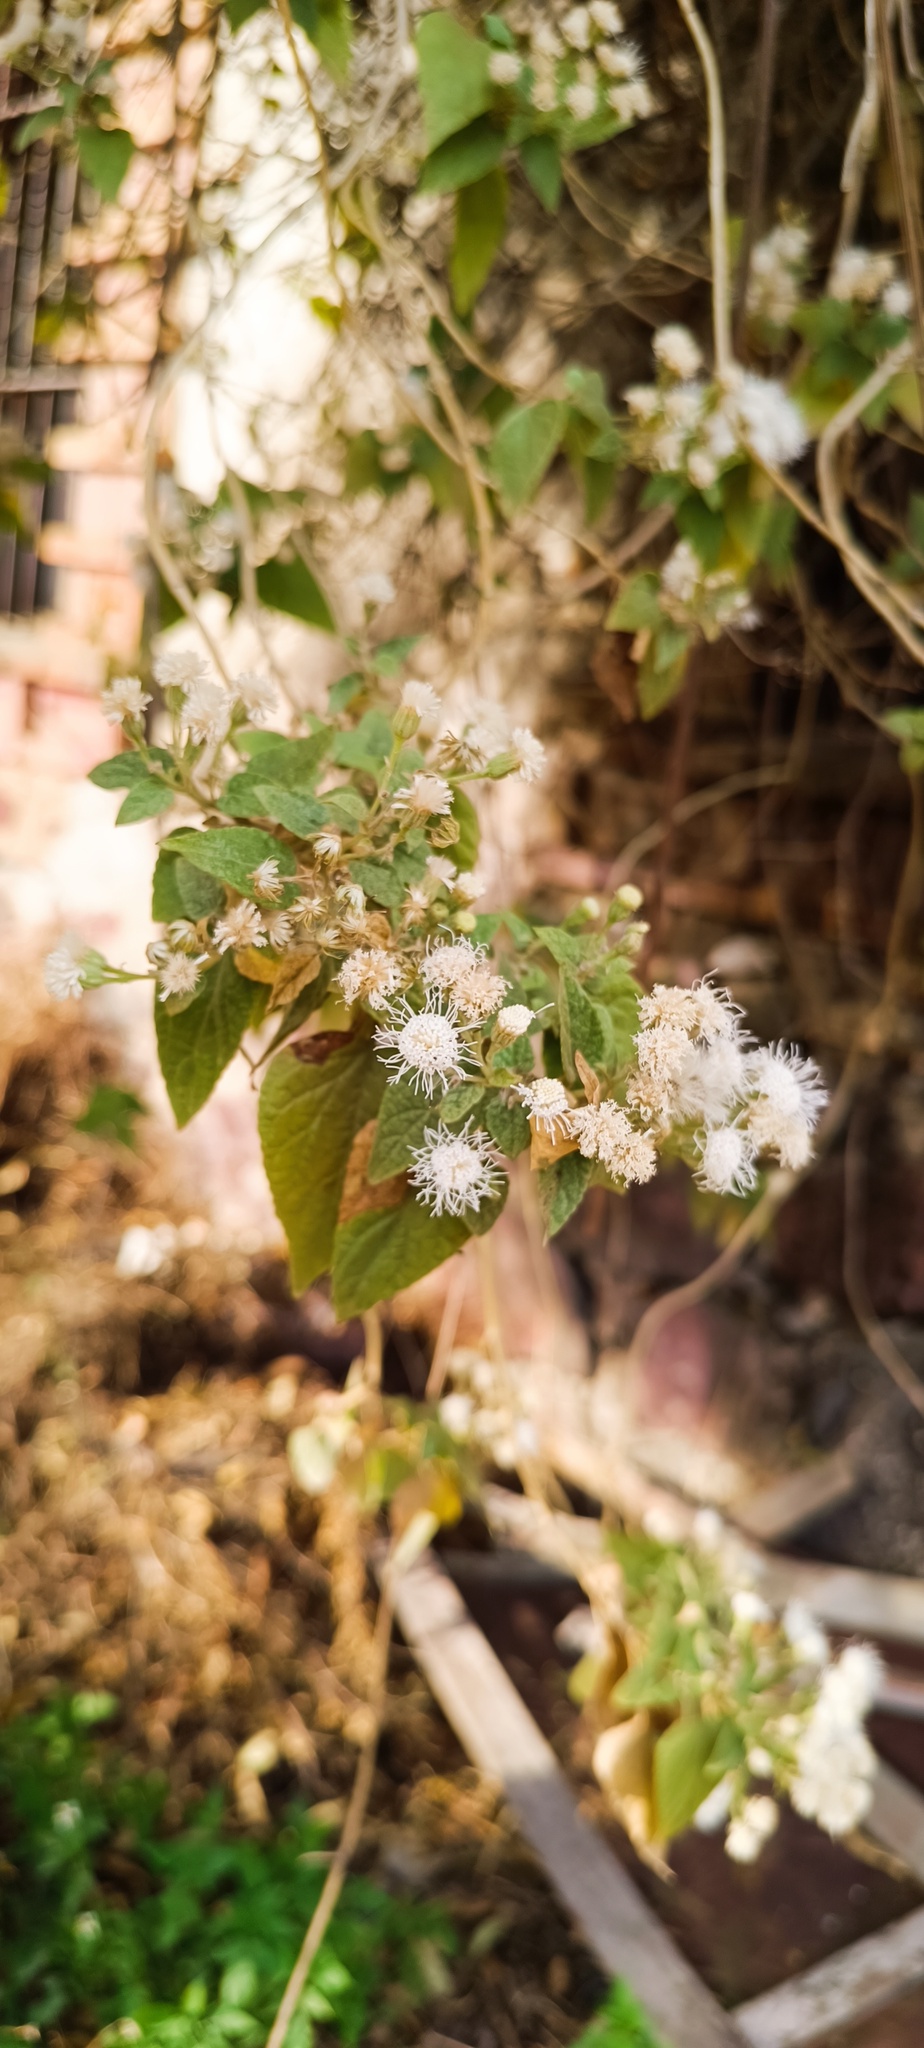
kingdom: Plantae
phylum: Tracheophyta
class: Magnoliopsida
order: Asterales
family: Asteraceae
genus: Ageratina
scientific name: Ageratina petiolaris
